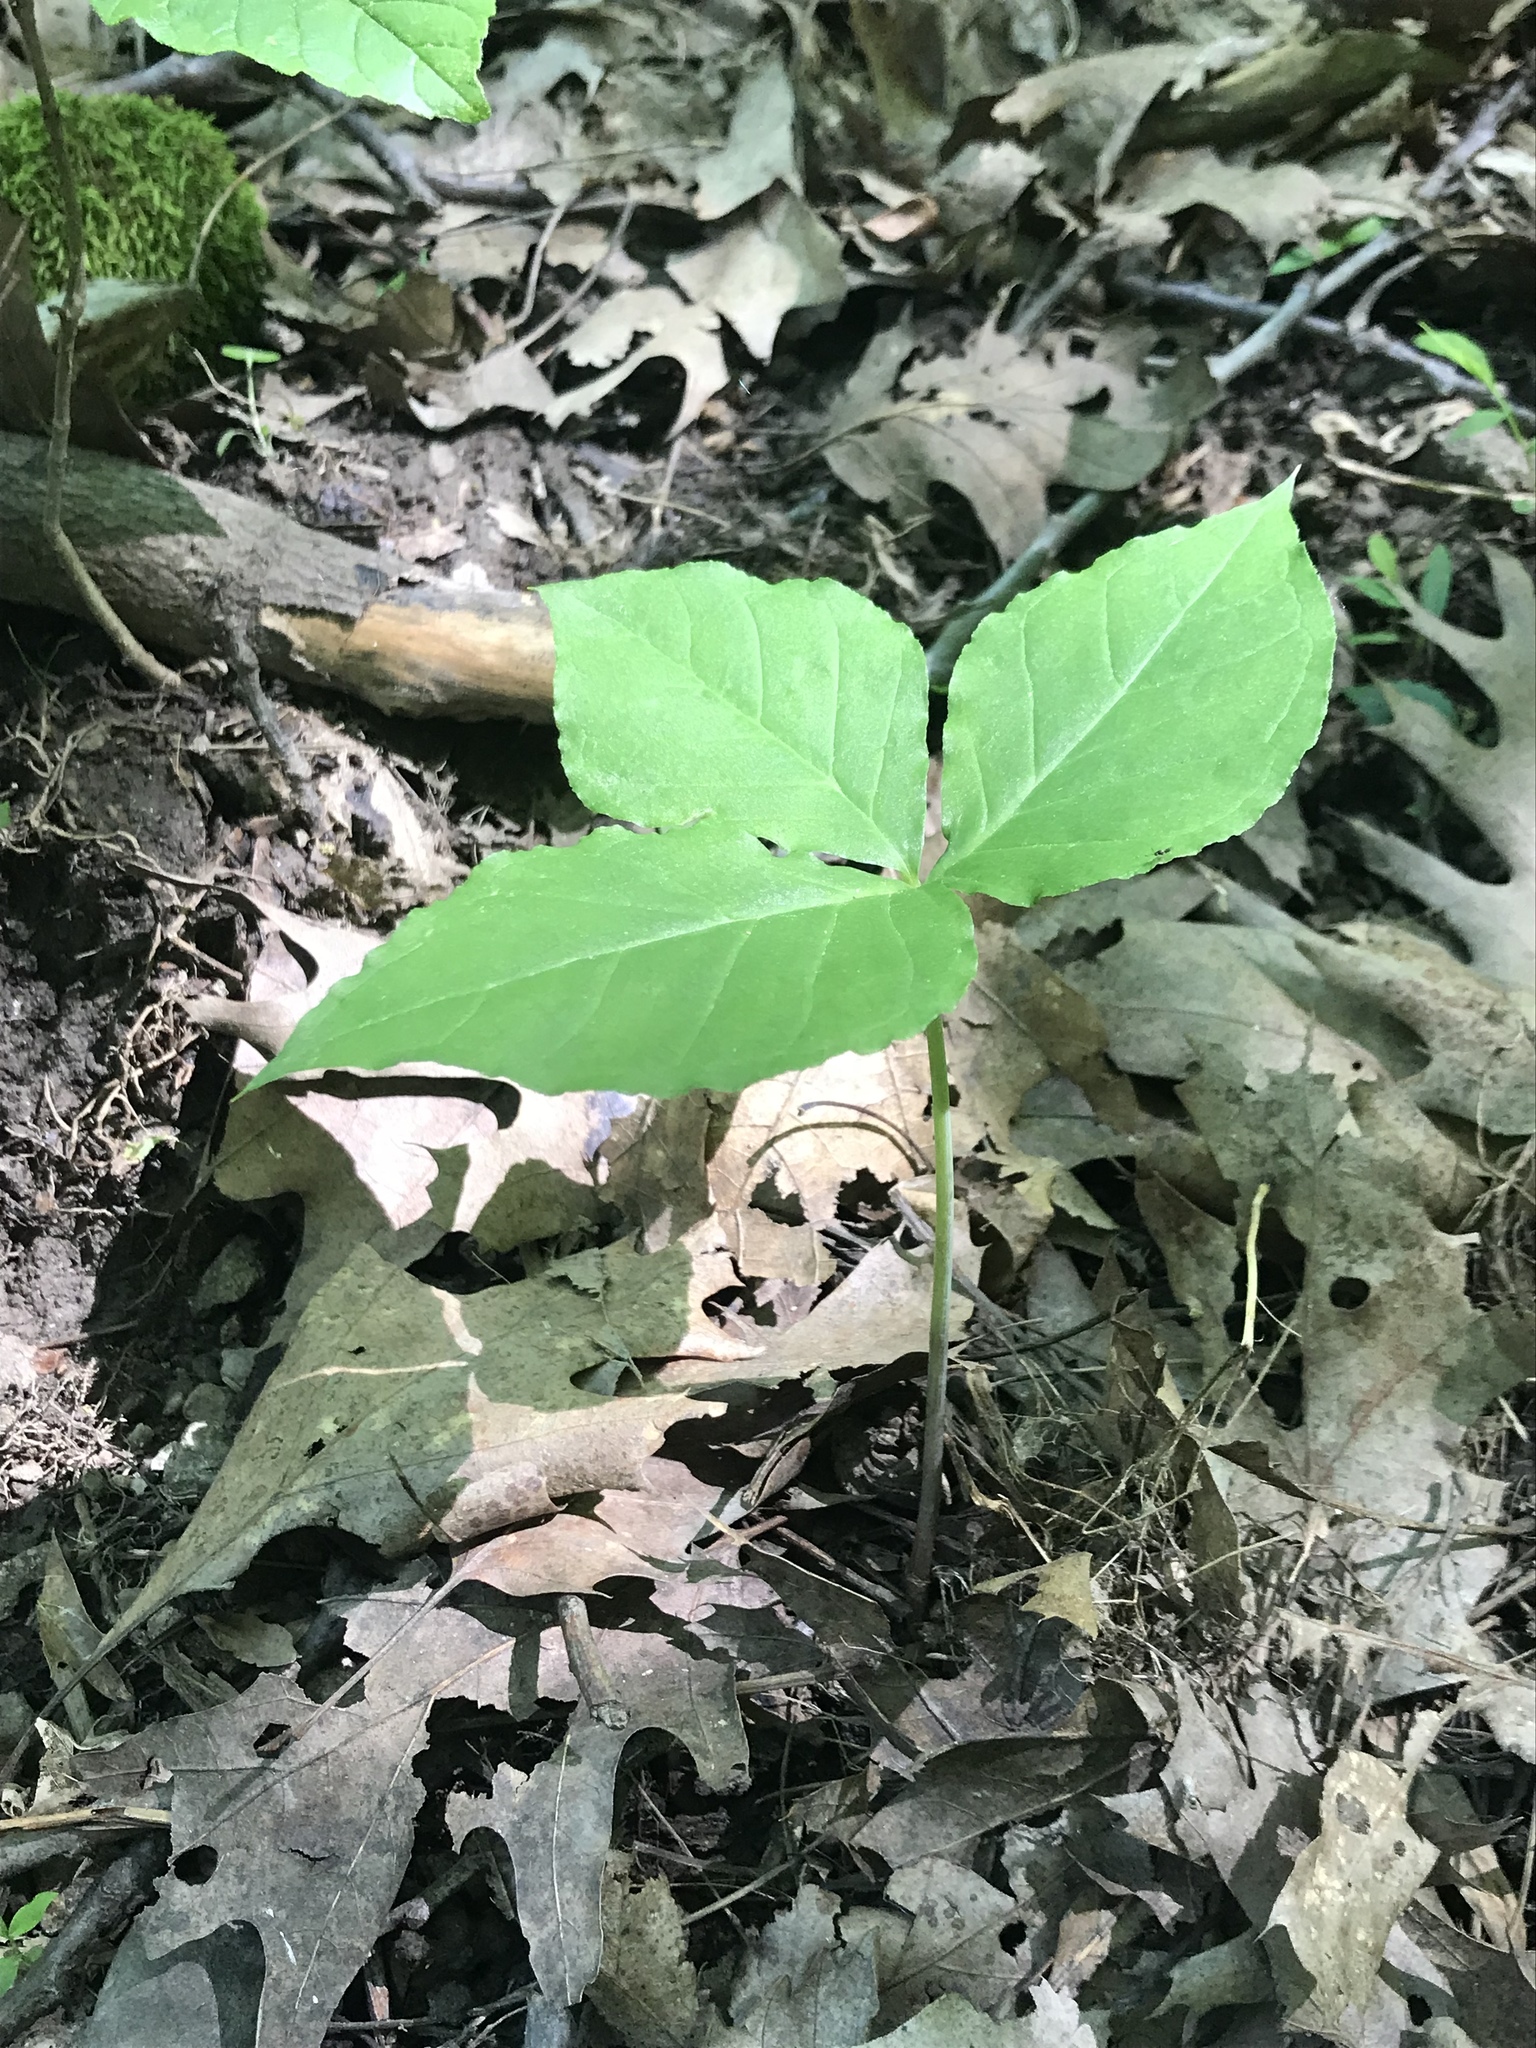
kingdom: Plantae
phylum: Tracheophyta
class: Liliopsida
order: Alismatales
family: Araceae
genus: Arisaema
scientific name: Arisaema triphyllum
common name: Jack-in-the-pulpit
